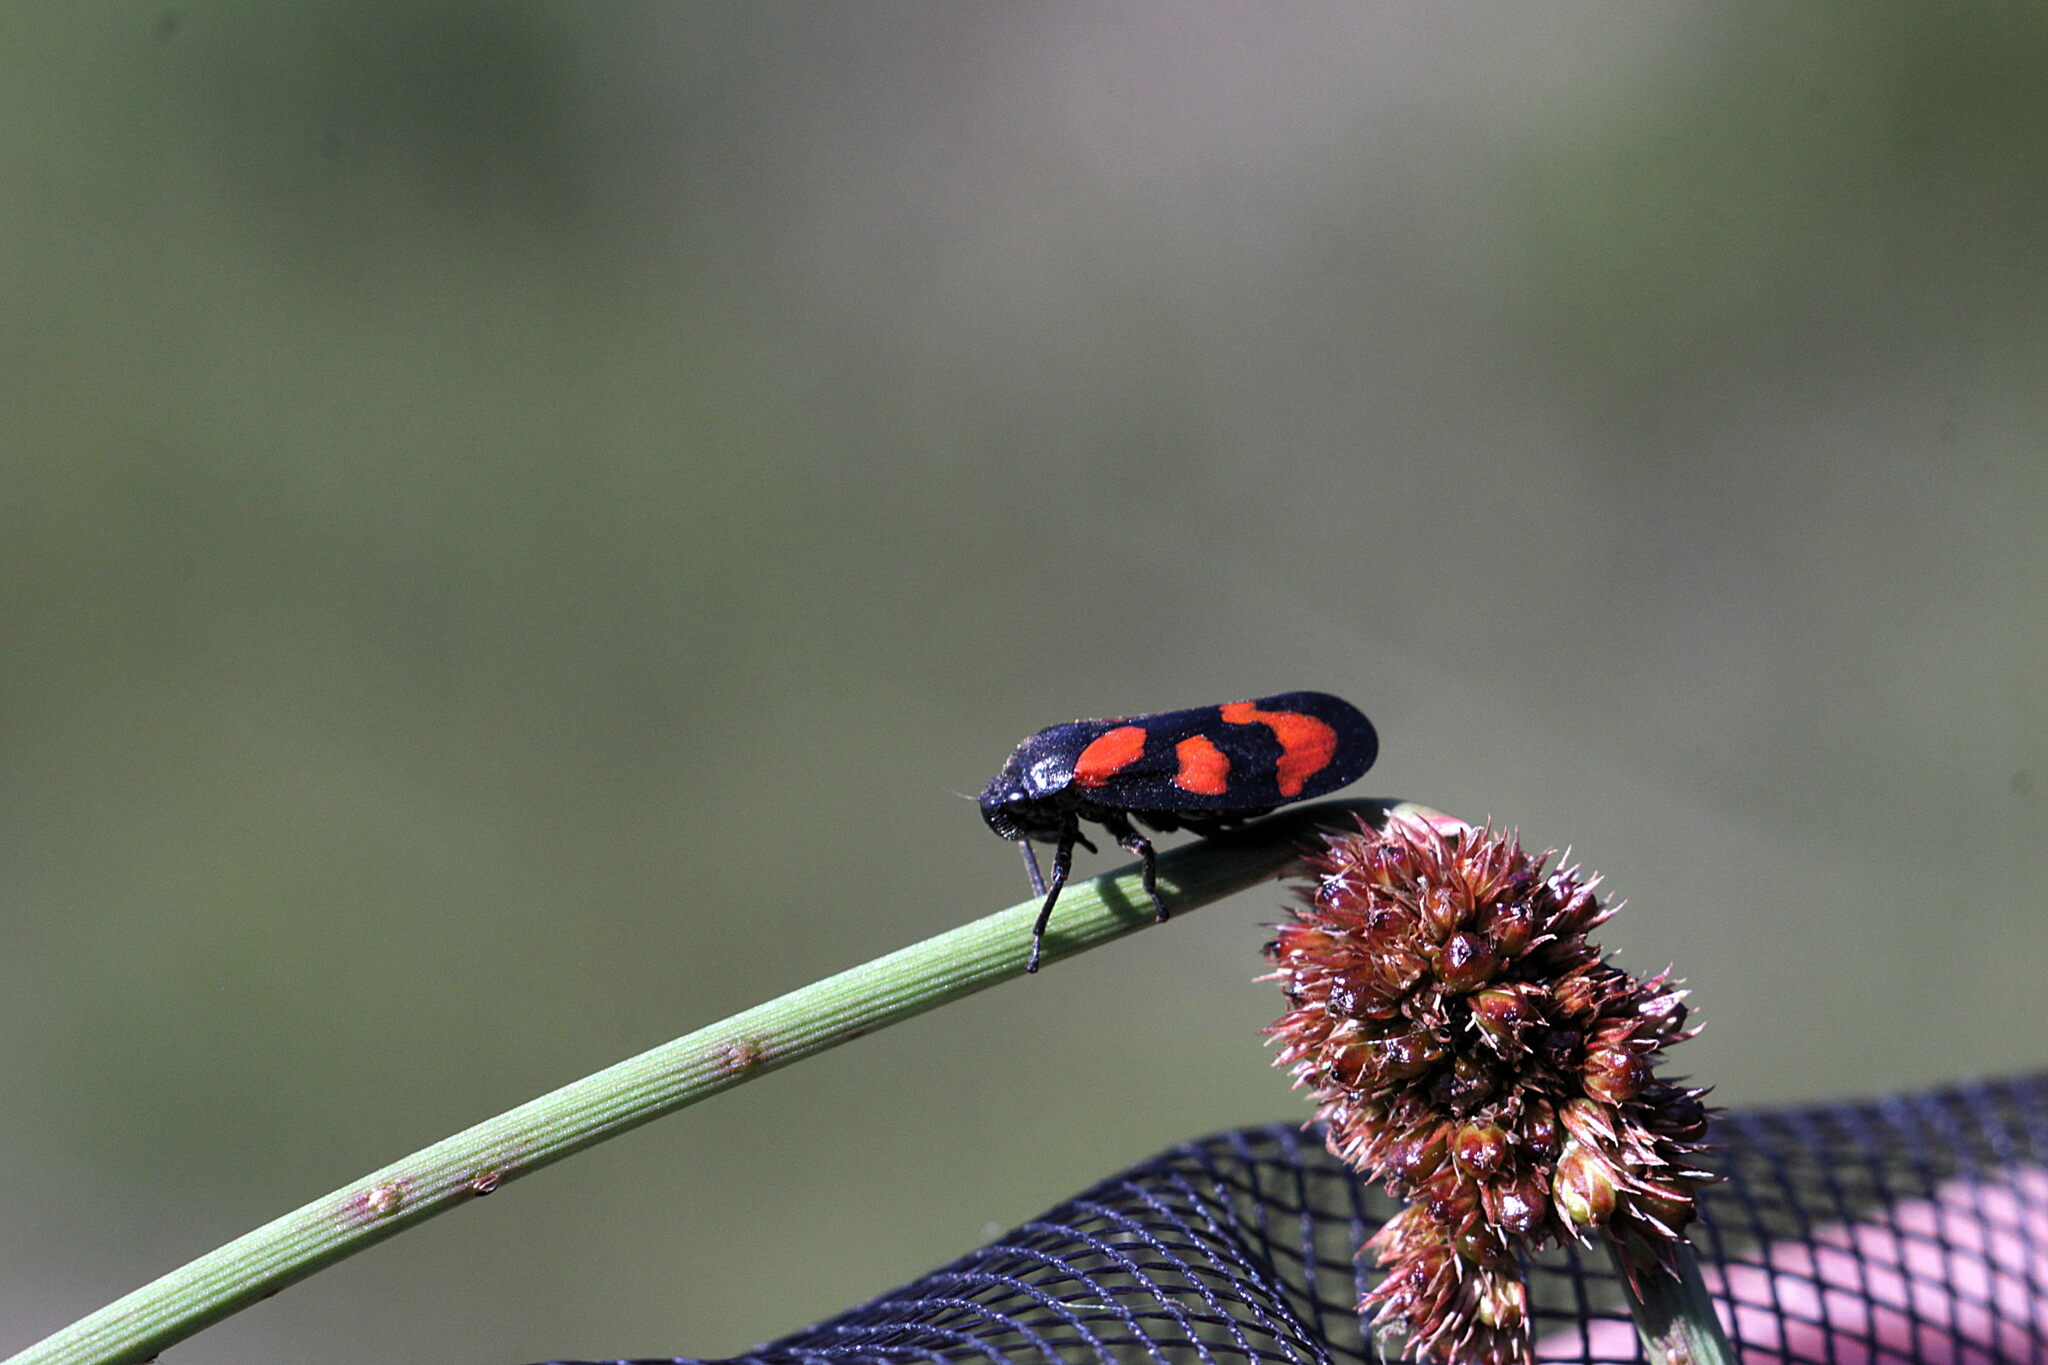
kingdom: Animalia
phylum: Arthropoda
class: Insecta
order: Hemiptera
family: Cercopidae
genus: Cercopis
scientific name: Cercopis vulnerata
